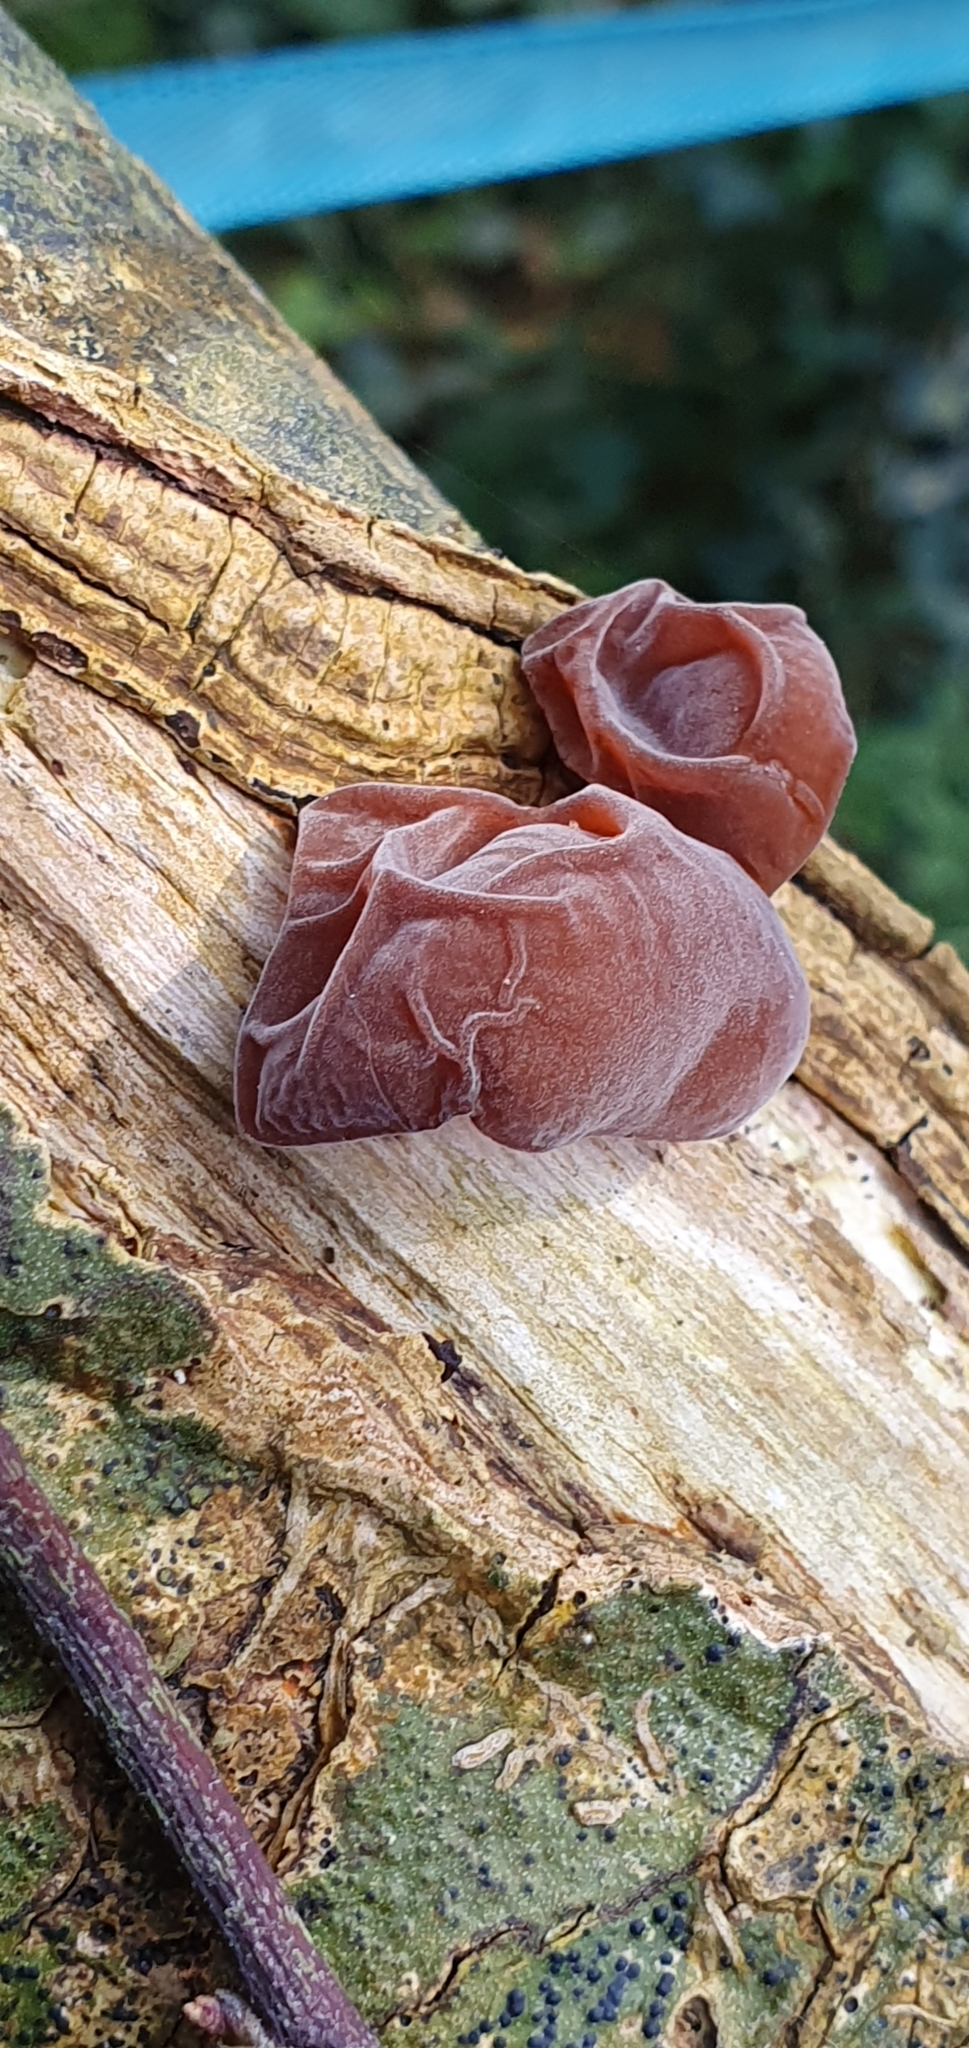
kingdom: Fungi
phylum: Basidiomycota
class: Agaricomycetes
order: Auriculariales
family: Auriculariaceae
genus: Auricularia
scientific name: Auricularia auricula-judae
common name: Jelly ear
